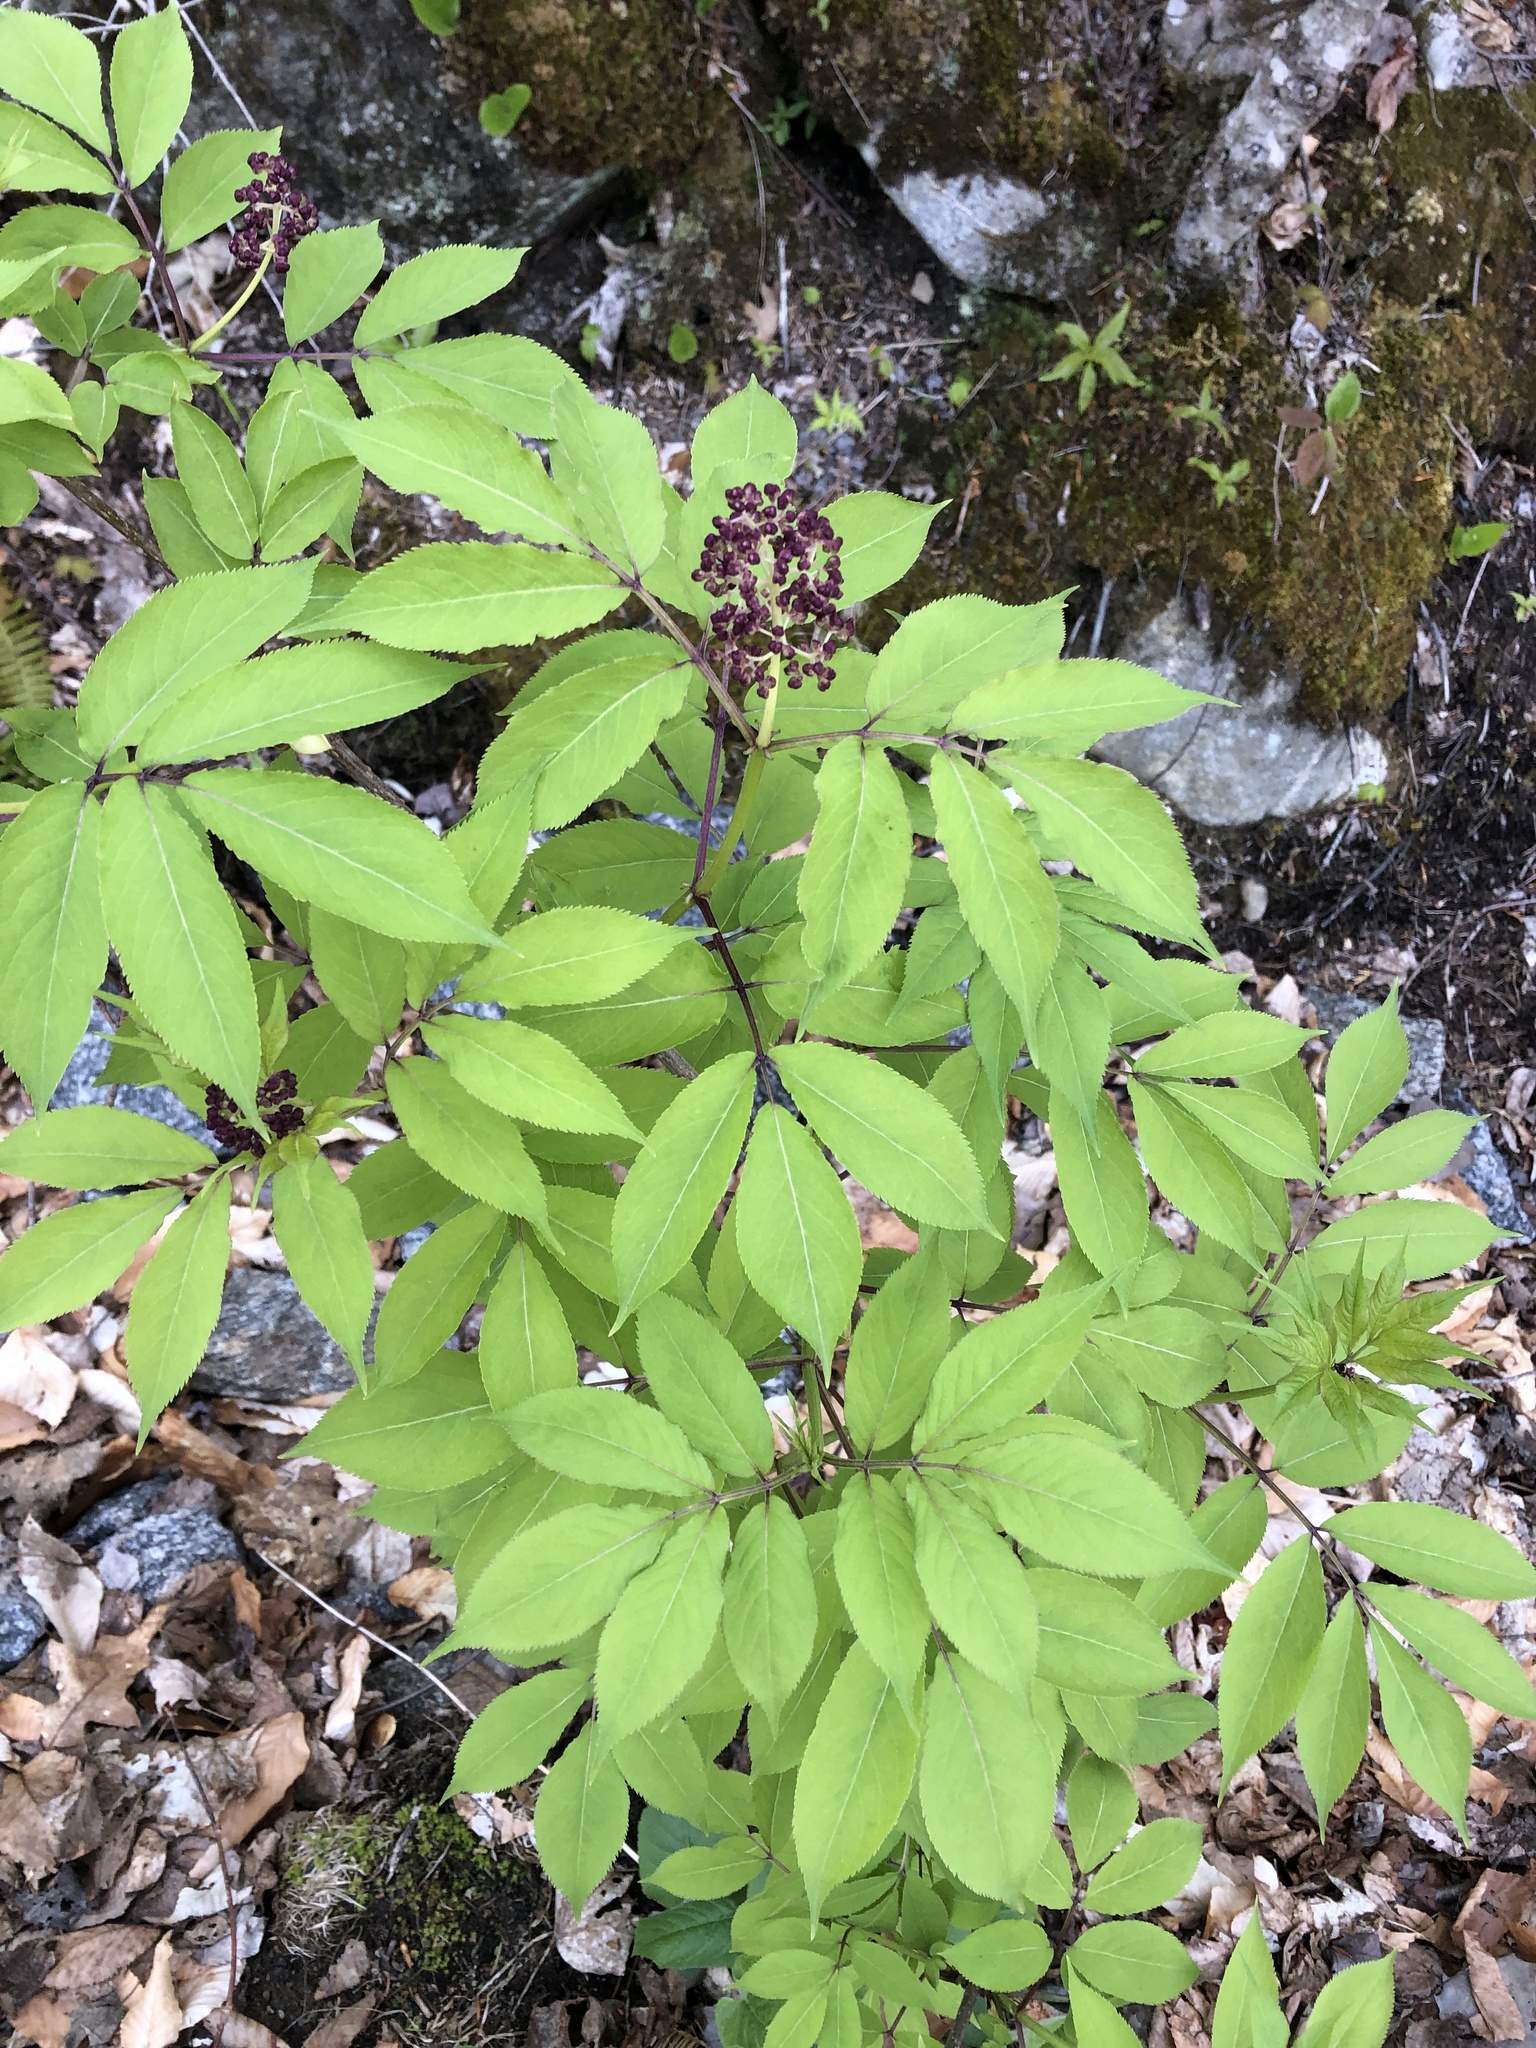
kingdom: Plantae
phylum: Tracheophyta
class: Magnoliopsida
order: Dipsacales
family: Viburnaceae
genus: Sambucus
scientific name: Sambucus racemosa
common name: Red-berried elder
